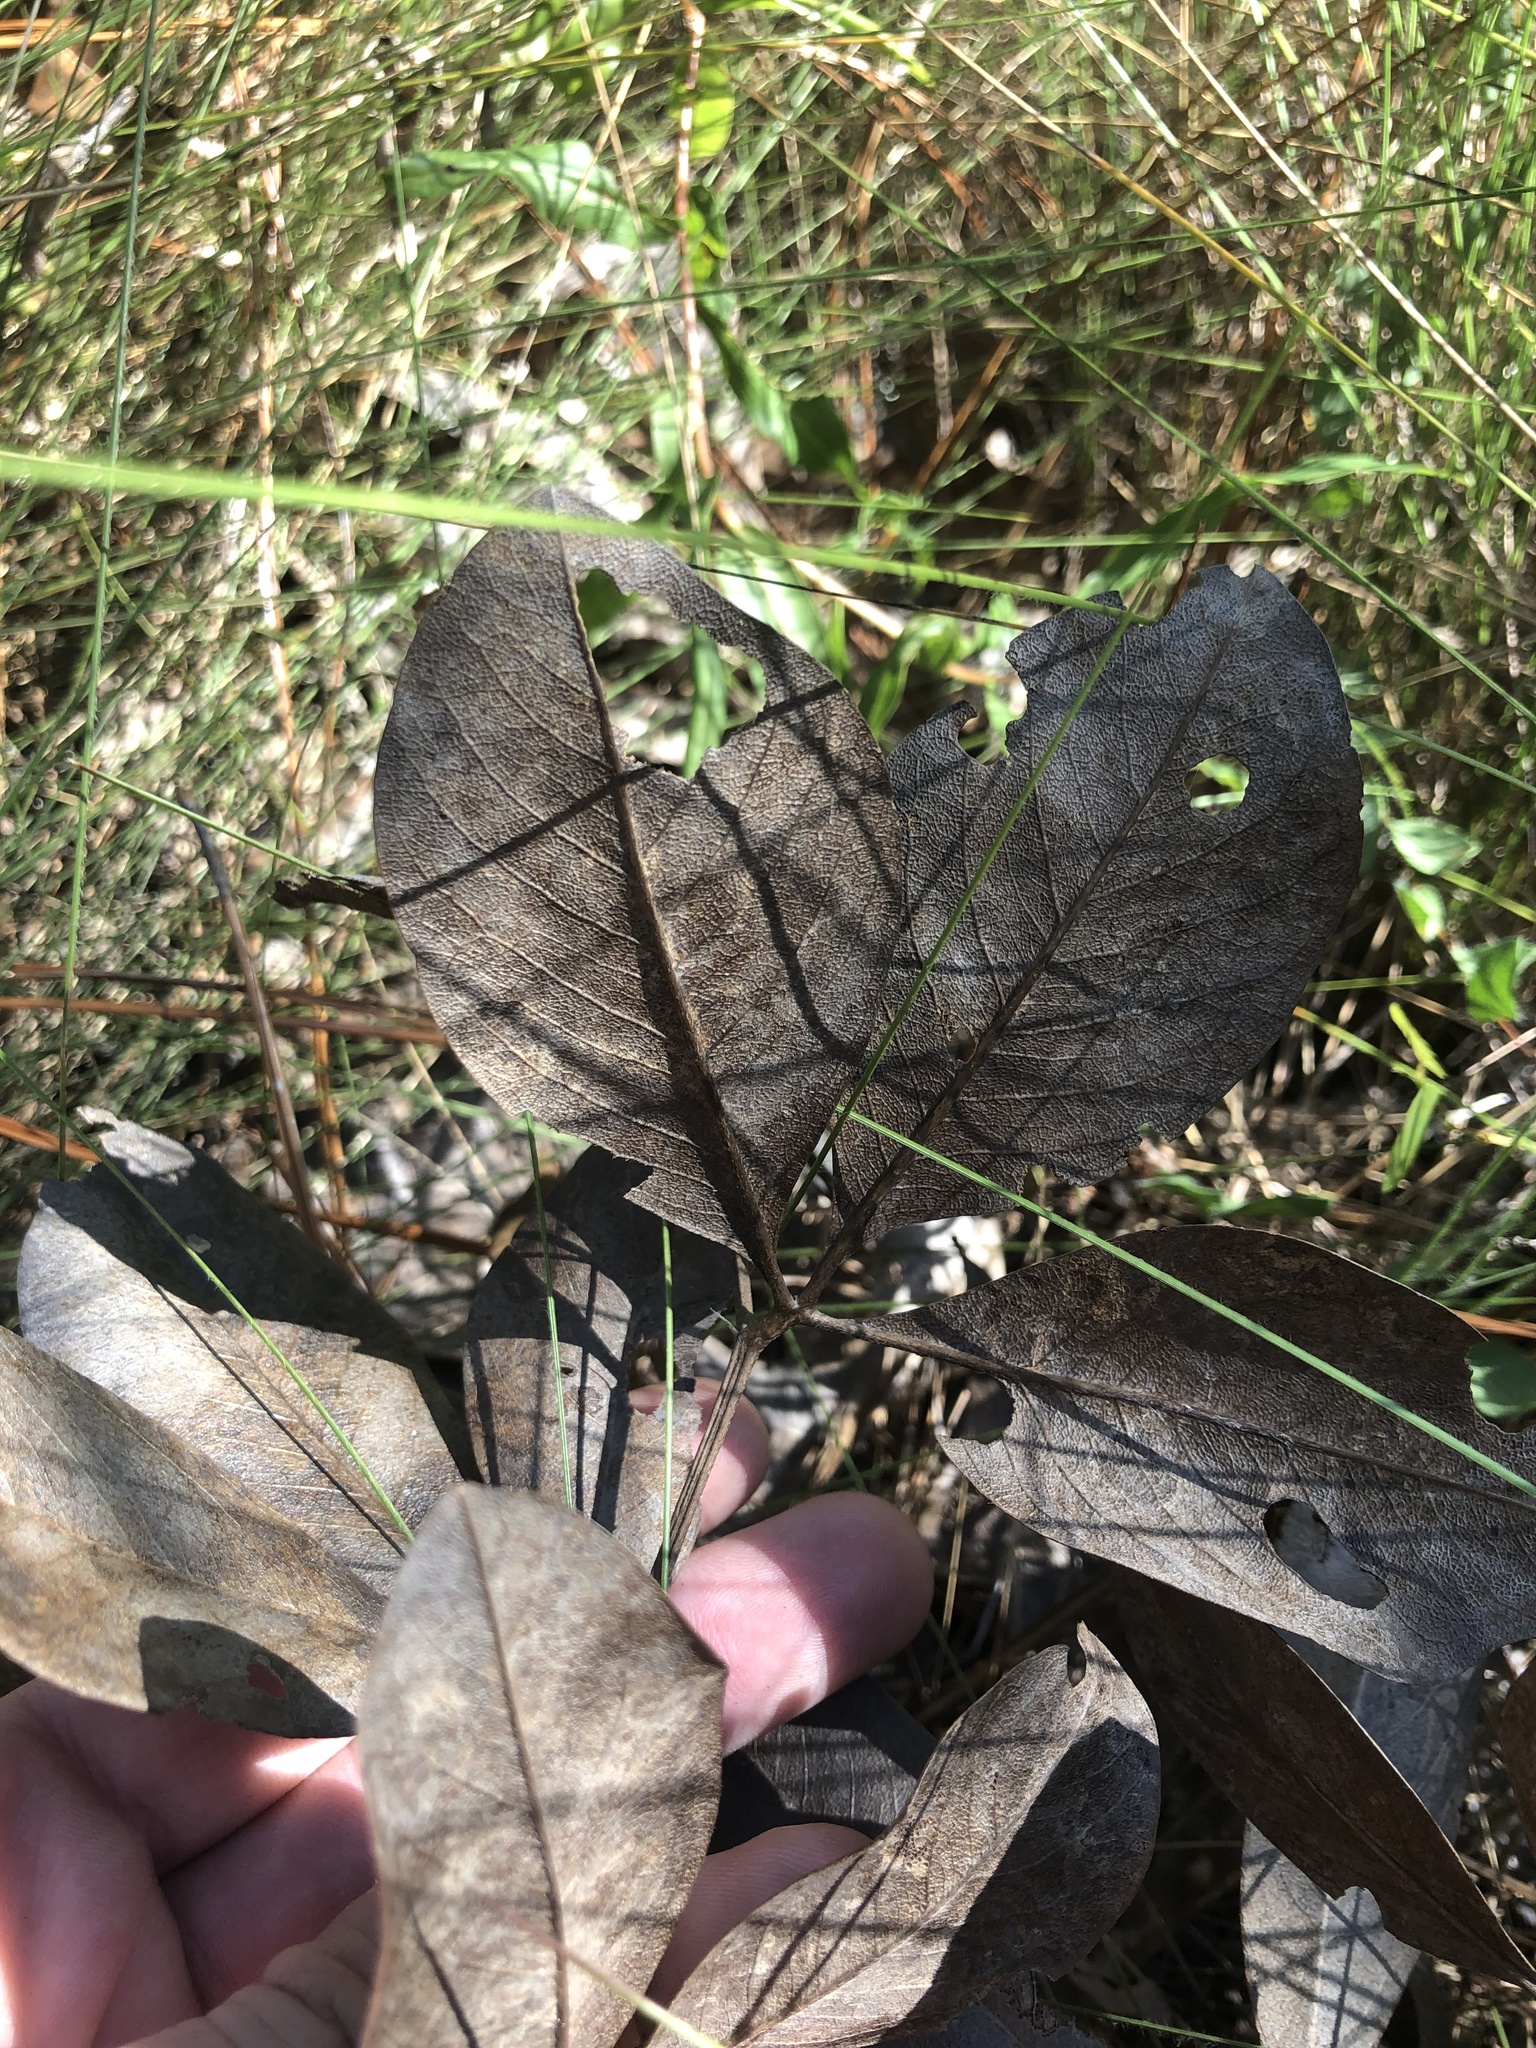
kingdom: Plantae
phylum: Tracheophyta
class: Magnoliopsida
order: Fabales
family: Fabaceae
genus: Baptisia
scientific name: Baptisia cinerea
